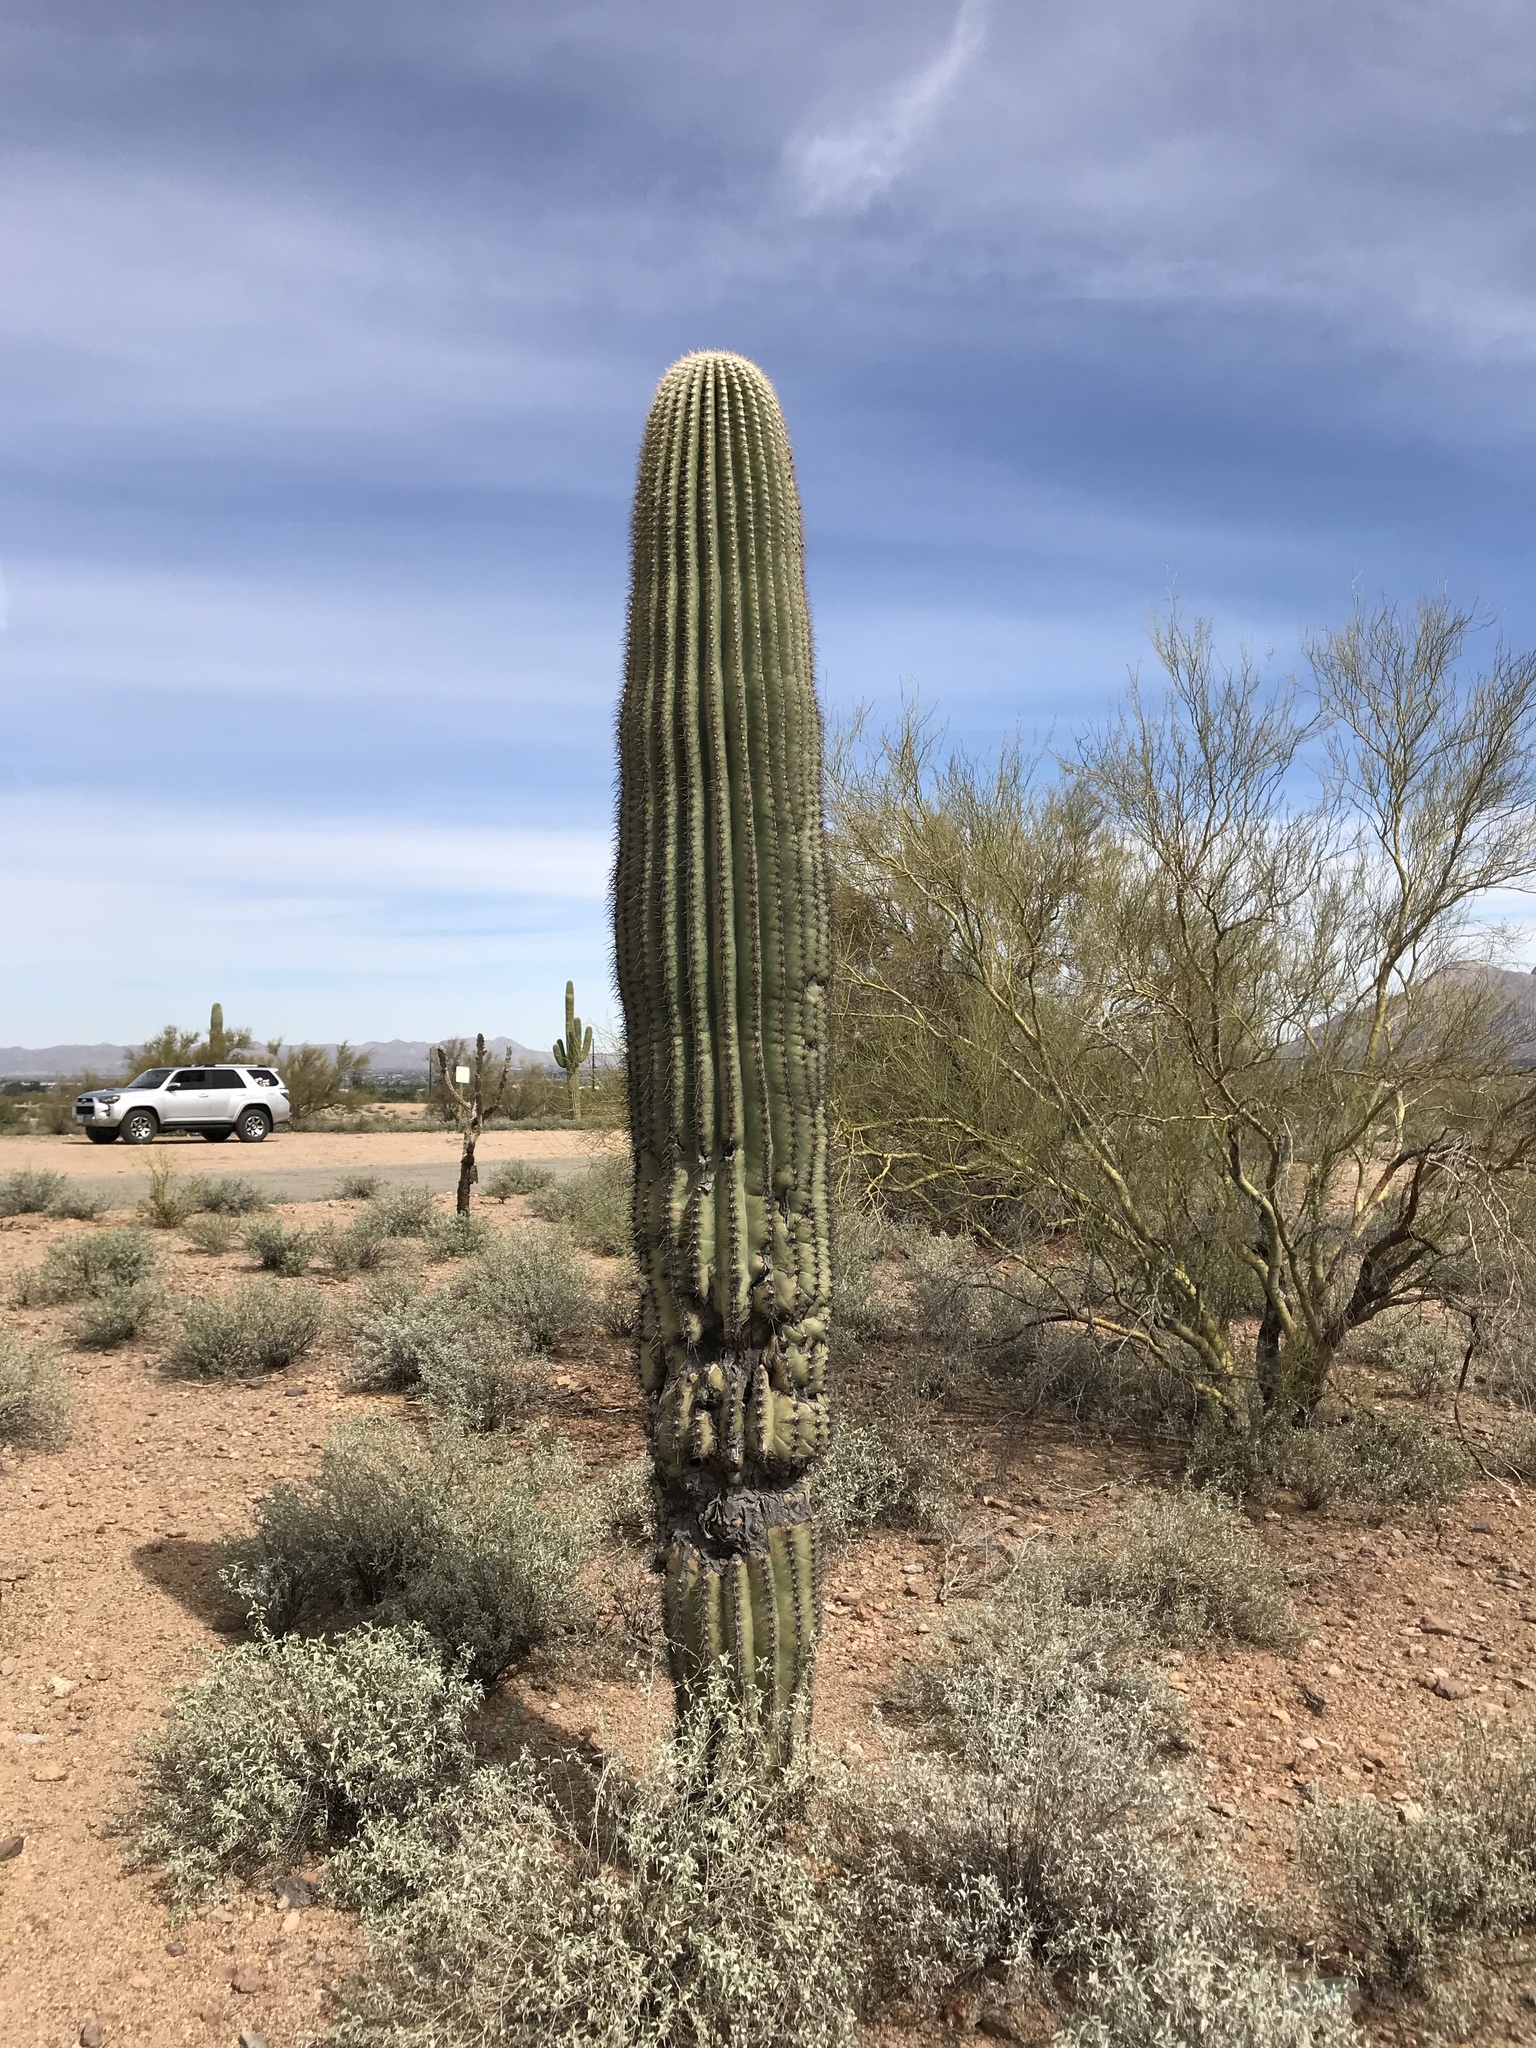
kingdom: Plantae
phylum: Tracheophyta
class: Magnoliopsida
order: Caryophyllales
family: Cactaceae
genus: Carnegiea
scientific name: Carnegiea gigantea
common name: Saguaro
